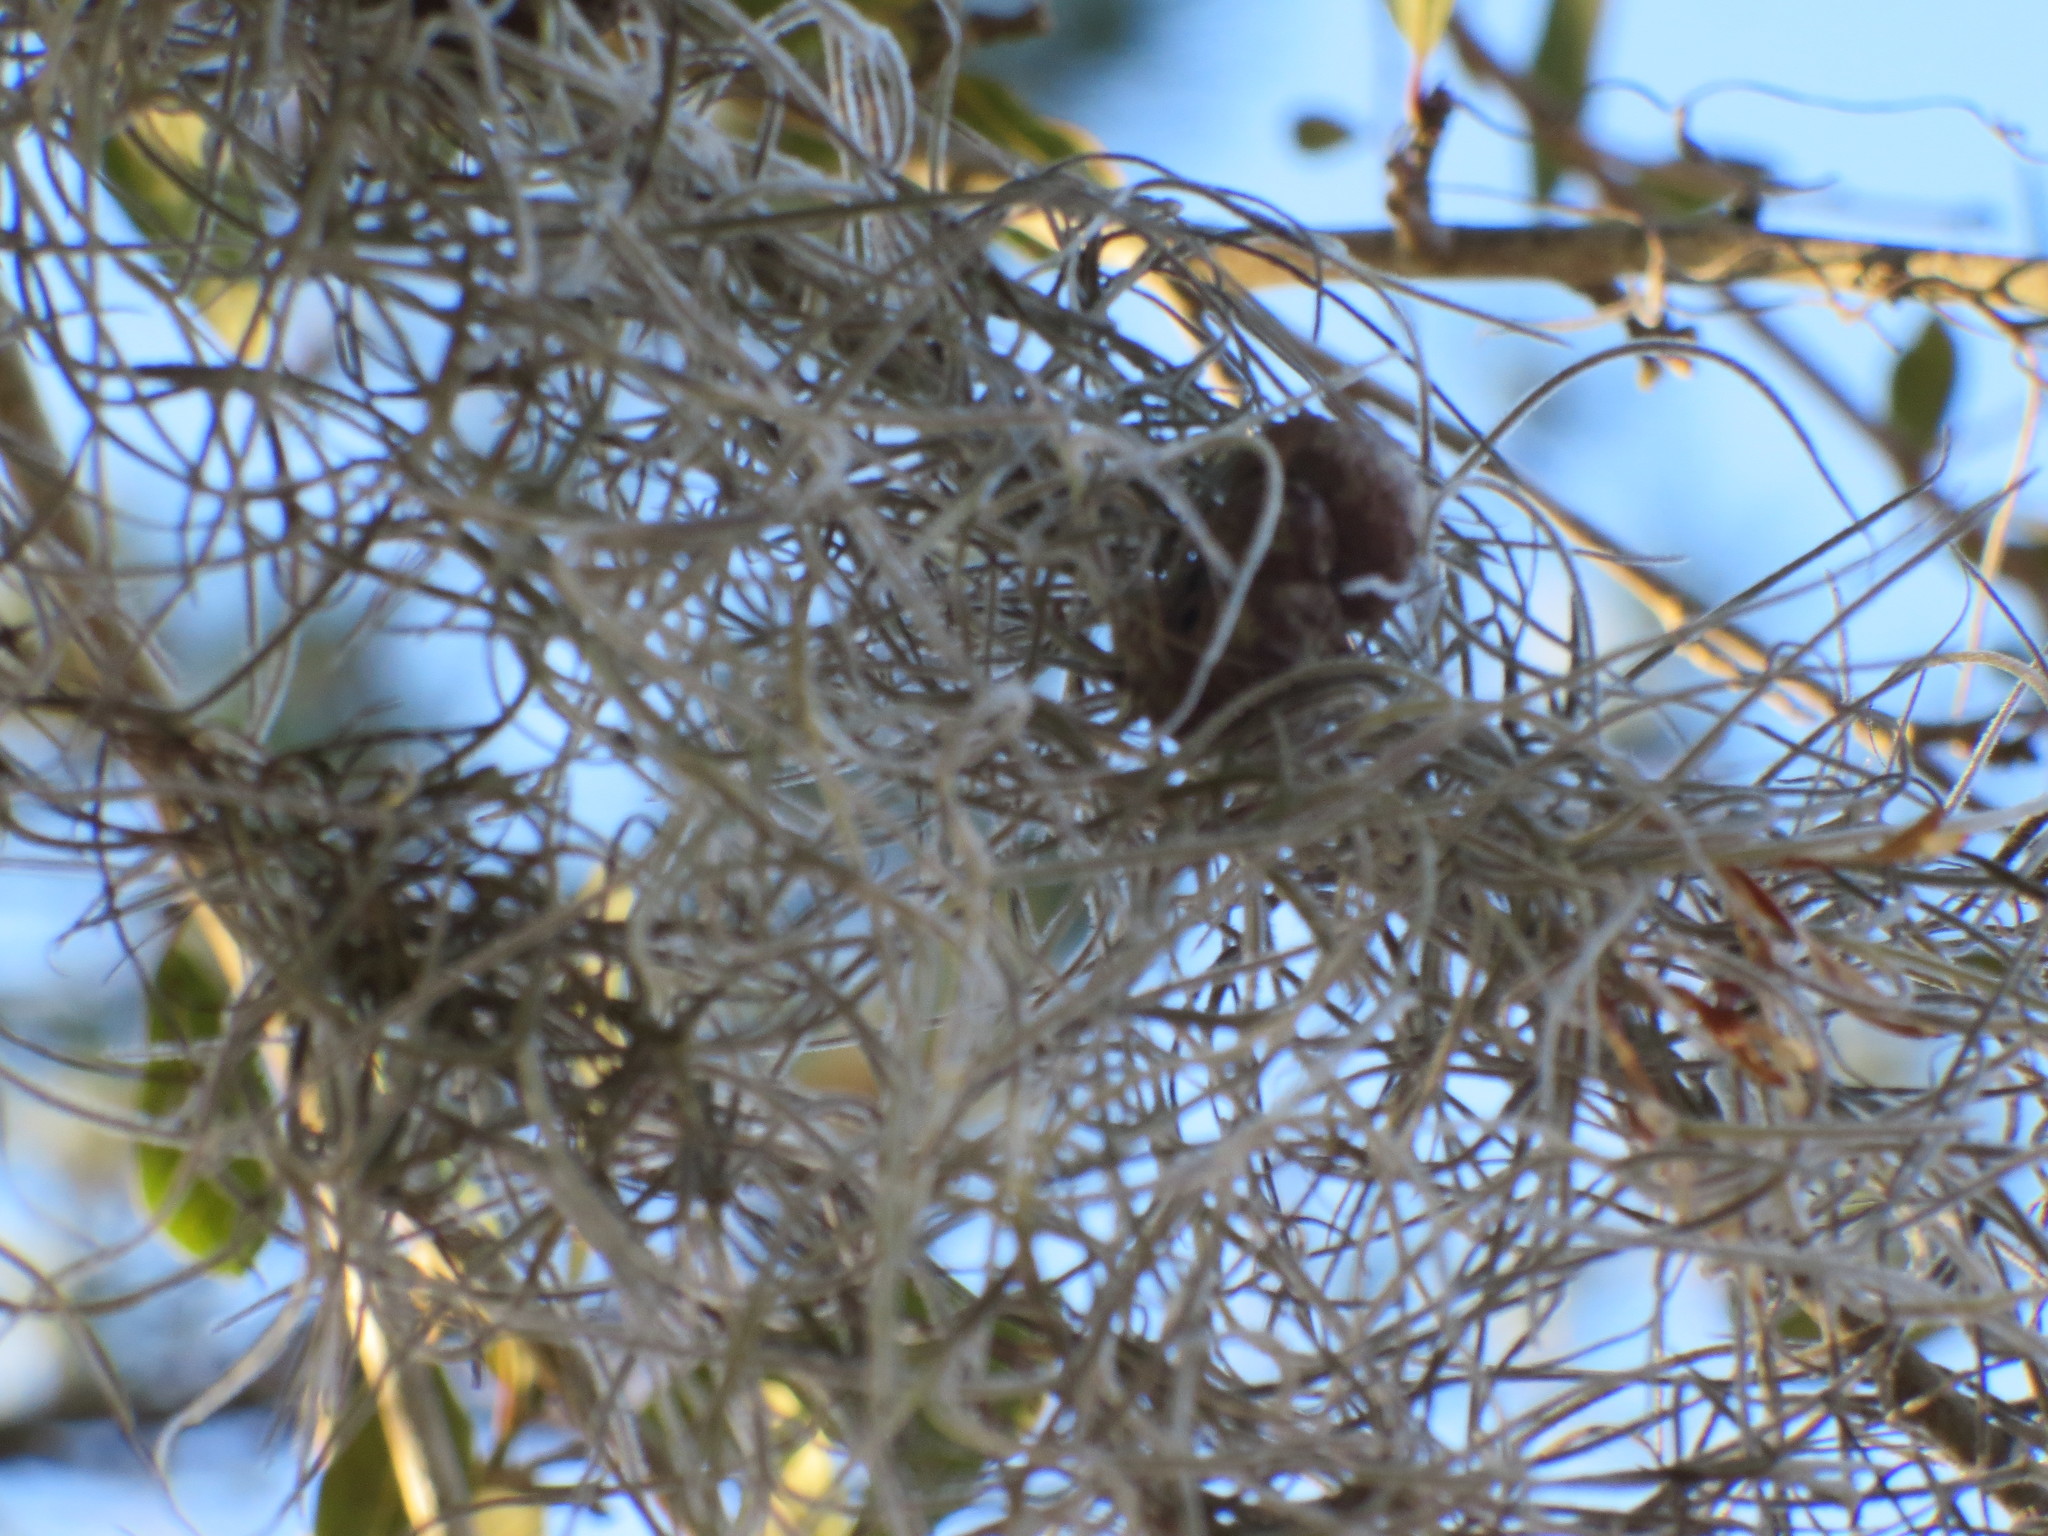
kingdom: Plantae
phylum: Tracheophyta
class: Liliopsida
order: Poales
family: Bromeliaceae
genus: Tillandsia
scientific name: Tillandsia usneoides
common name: Spanish moss
